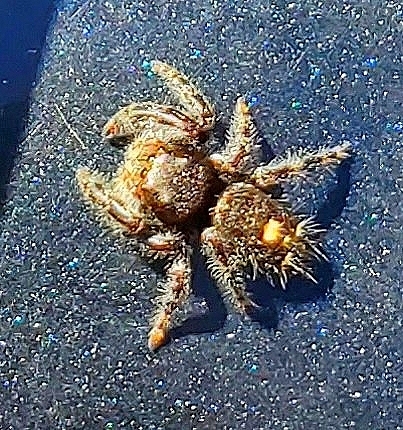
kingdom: Animalia
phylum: Arthropoda
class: Arachnida
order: Araneae
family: Salticidae
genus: Phidippus
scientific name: Phidippus audax
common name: Bold jumper
